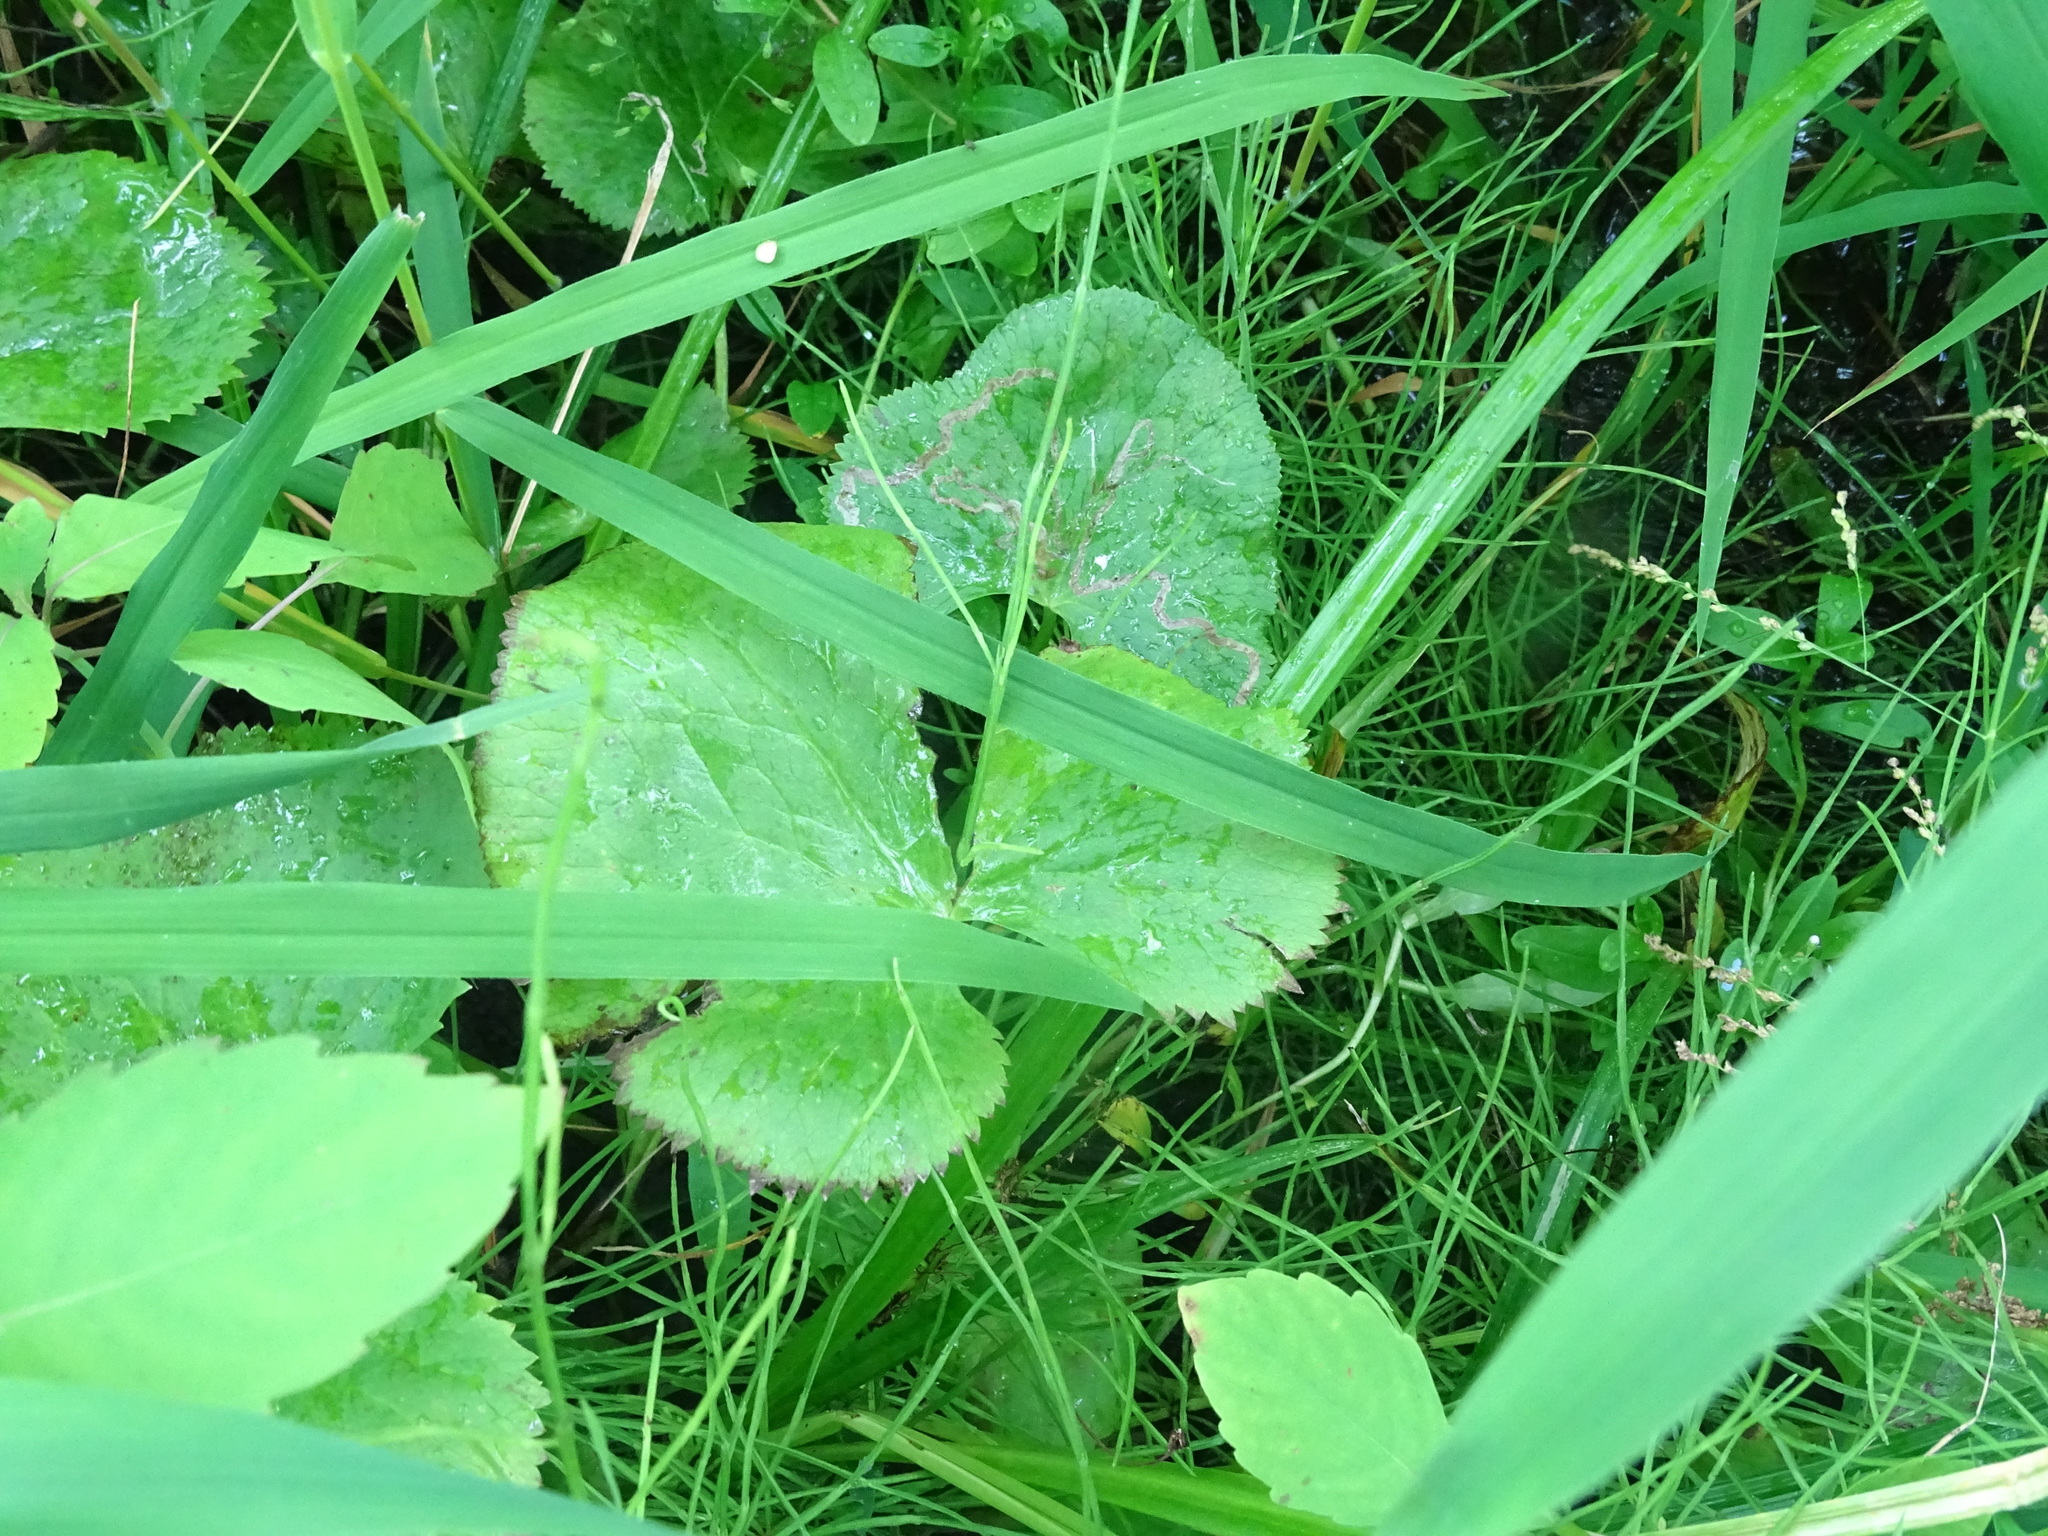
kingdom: Plantae
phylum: Tracheophyta
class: Magnoliopsida
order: Ranunculales
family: Ranunculaceae
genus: Caltha
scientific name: Caltha palustris
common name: Marsh marigold
